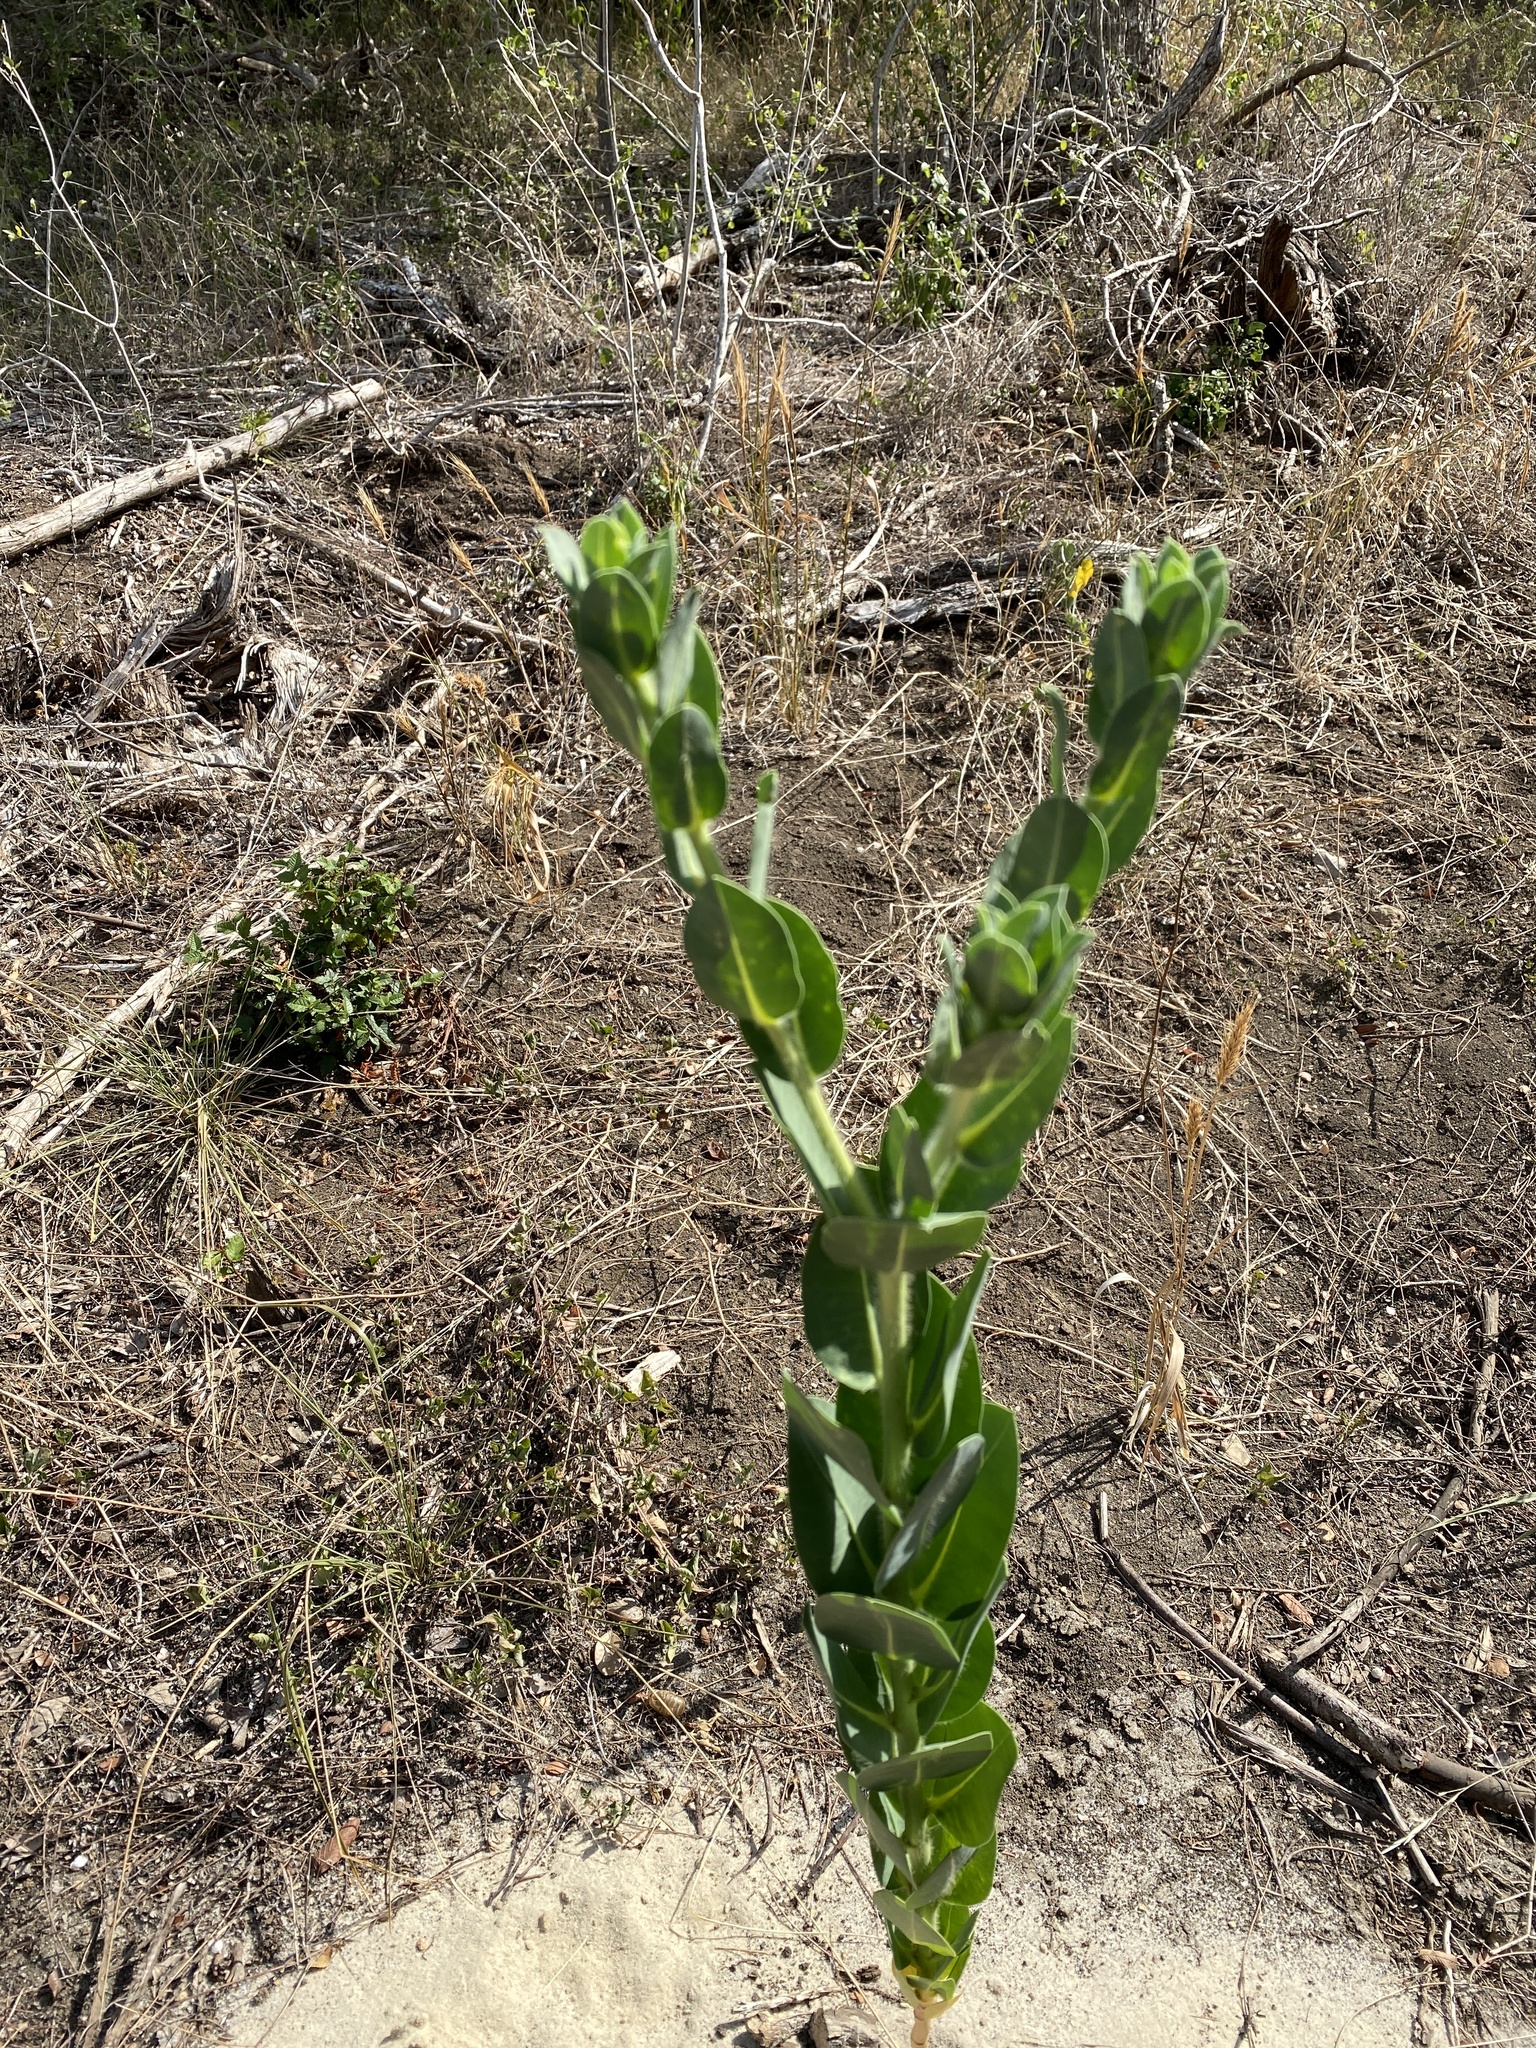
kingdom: Plantae
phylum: Tracheophyta
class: Magnoliopsida
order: Malpighiales
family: Euphorbiaceae
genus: Euphorbia
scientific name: Euphorbia marginata
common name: Ghostweed
